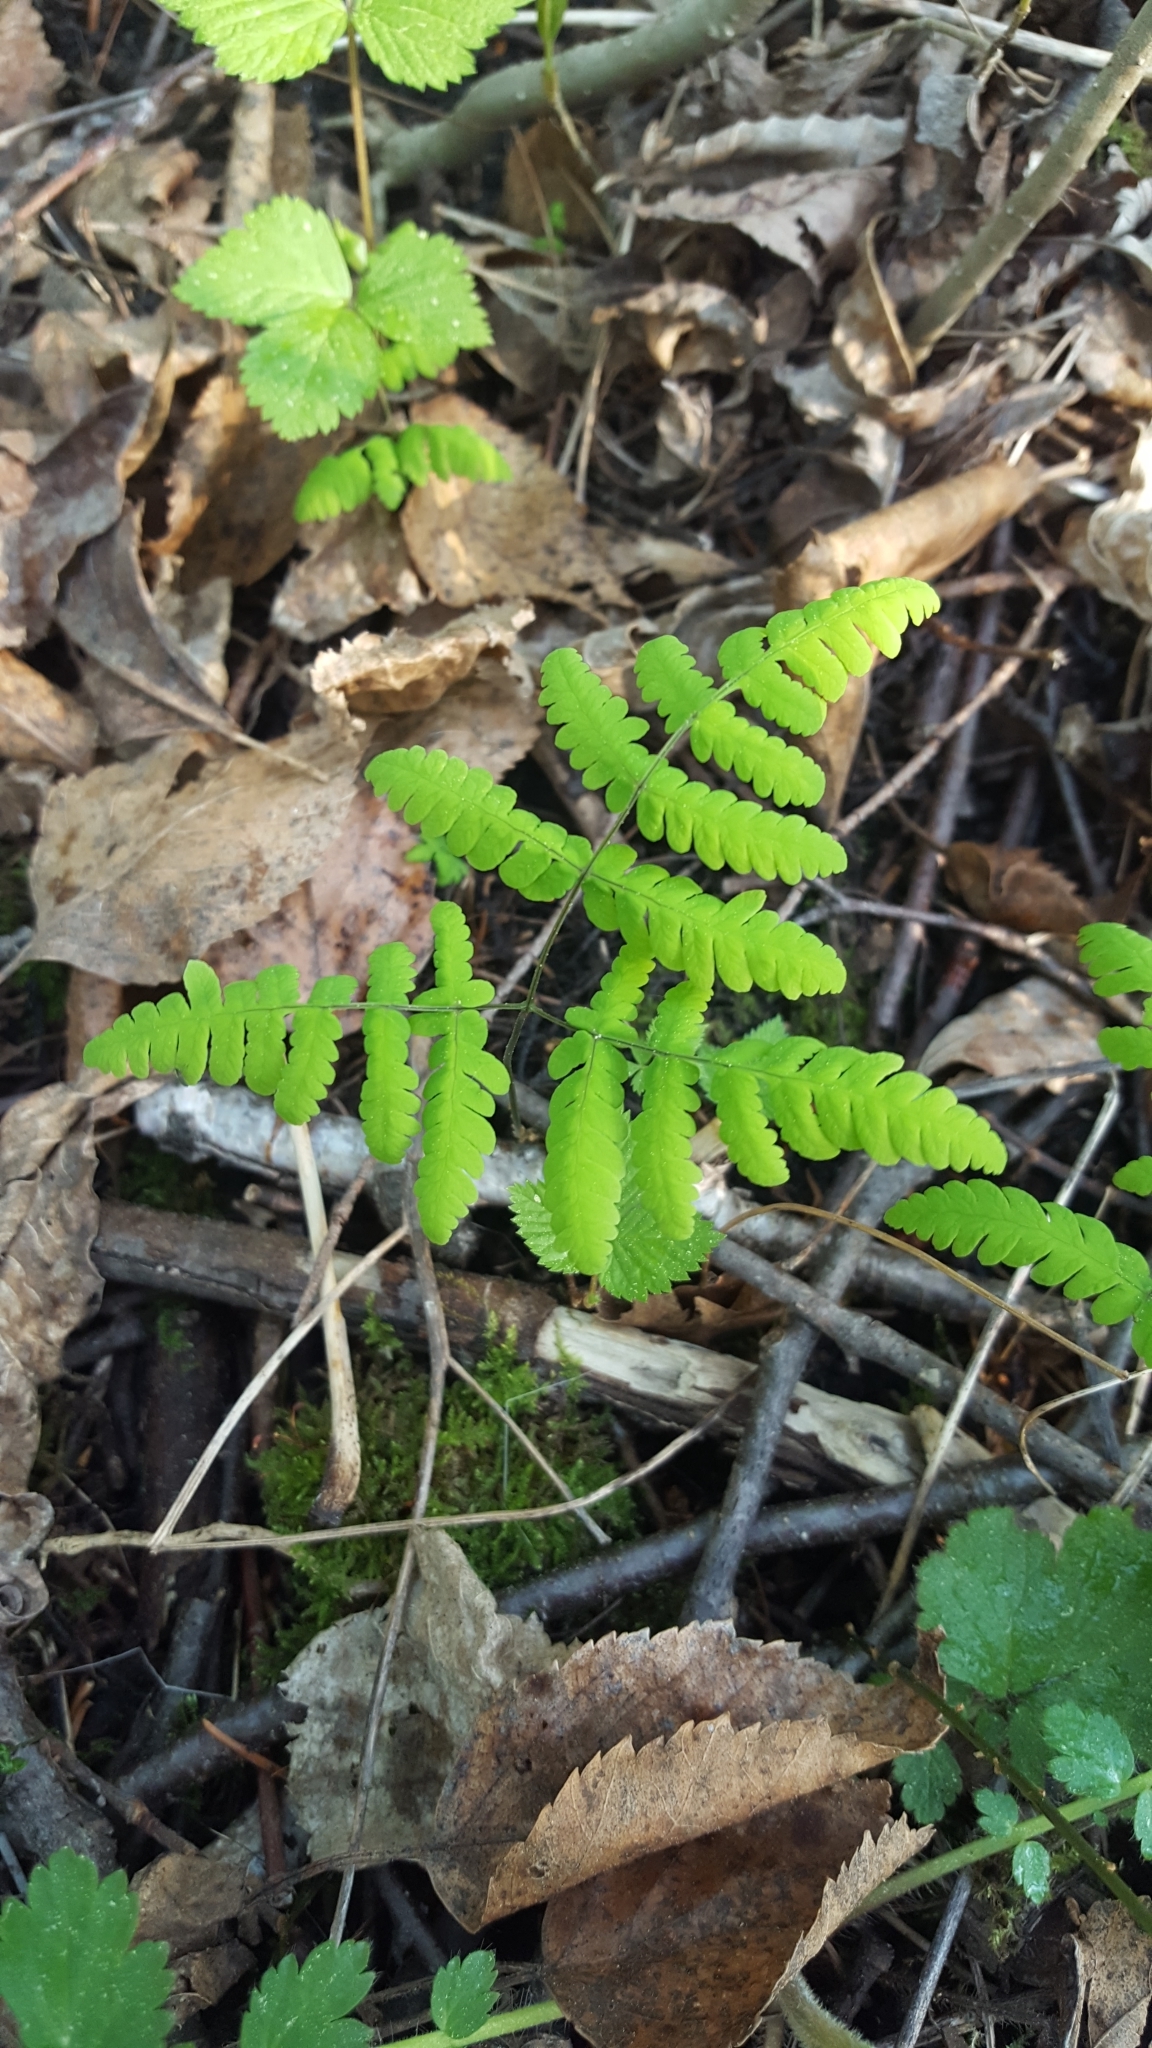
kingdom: Plantae
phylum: Tracheophyta
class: Polypodiopsida
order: Polypodiales
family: Cystopteridaceae
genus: Gymnocarpium
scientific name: Gymnocarpium dryopteris
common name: Oak fern
